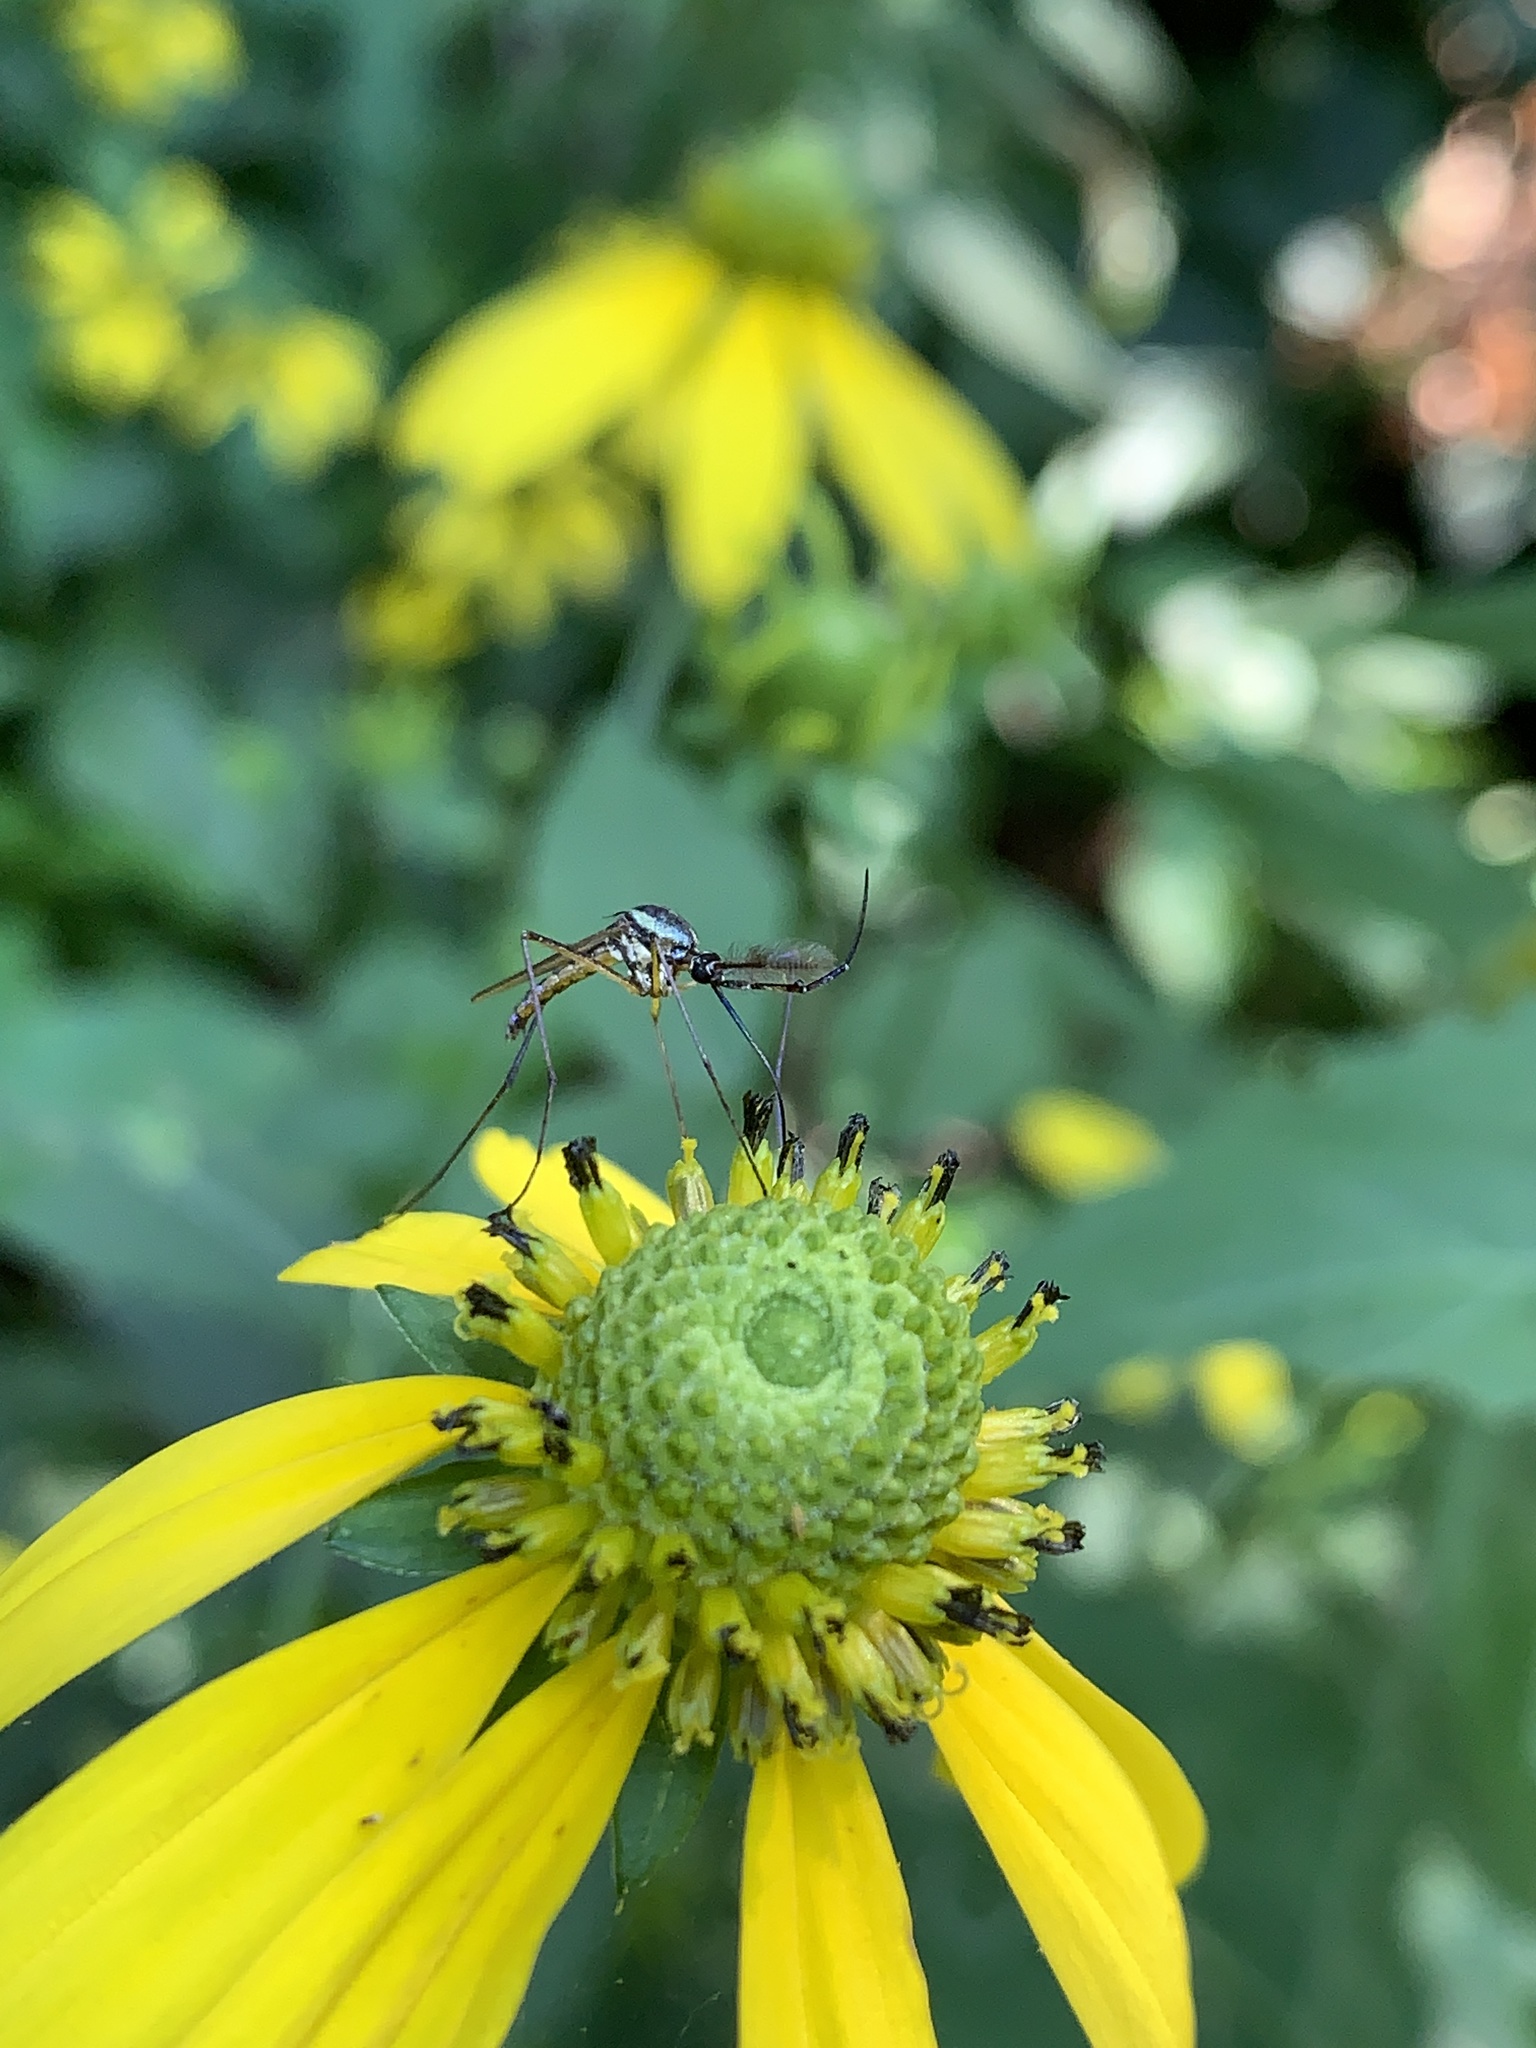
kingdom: Animalia
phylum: Arthropoda
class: Insecta
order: Diptera
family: Culicidae
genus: Toxorhynchites
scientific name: Toxorhynchites rutilus
